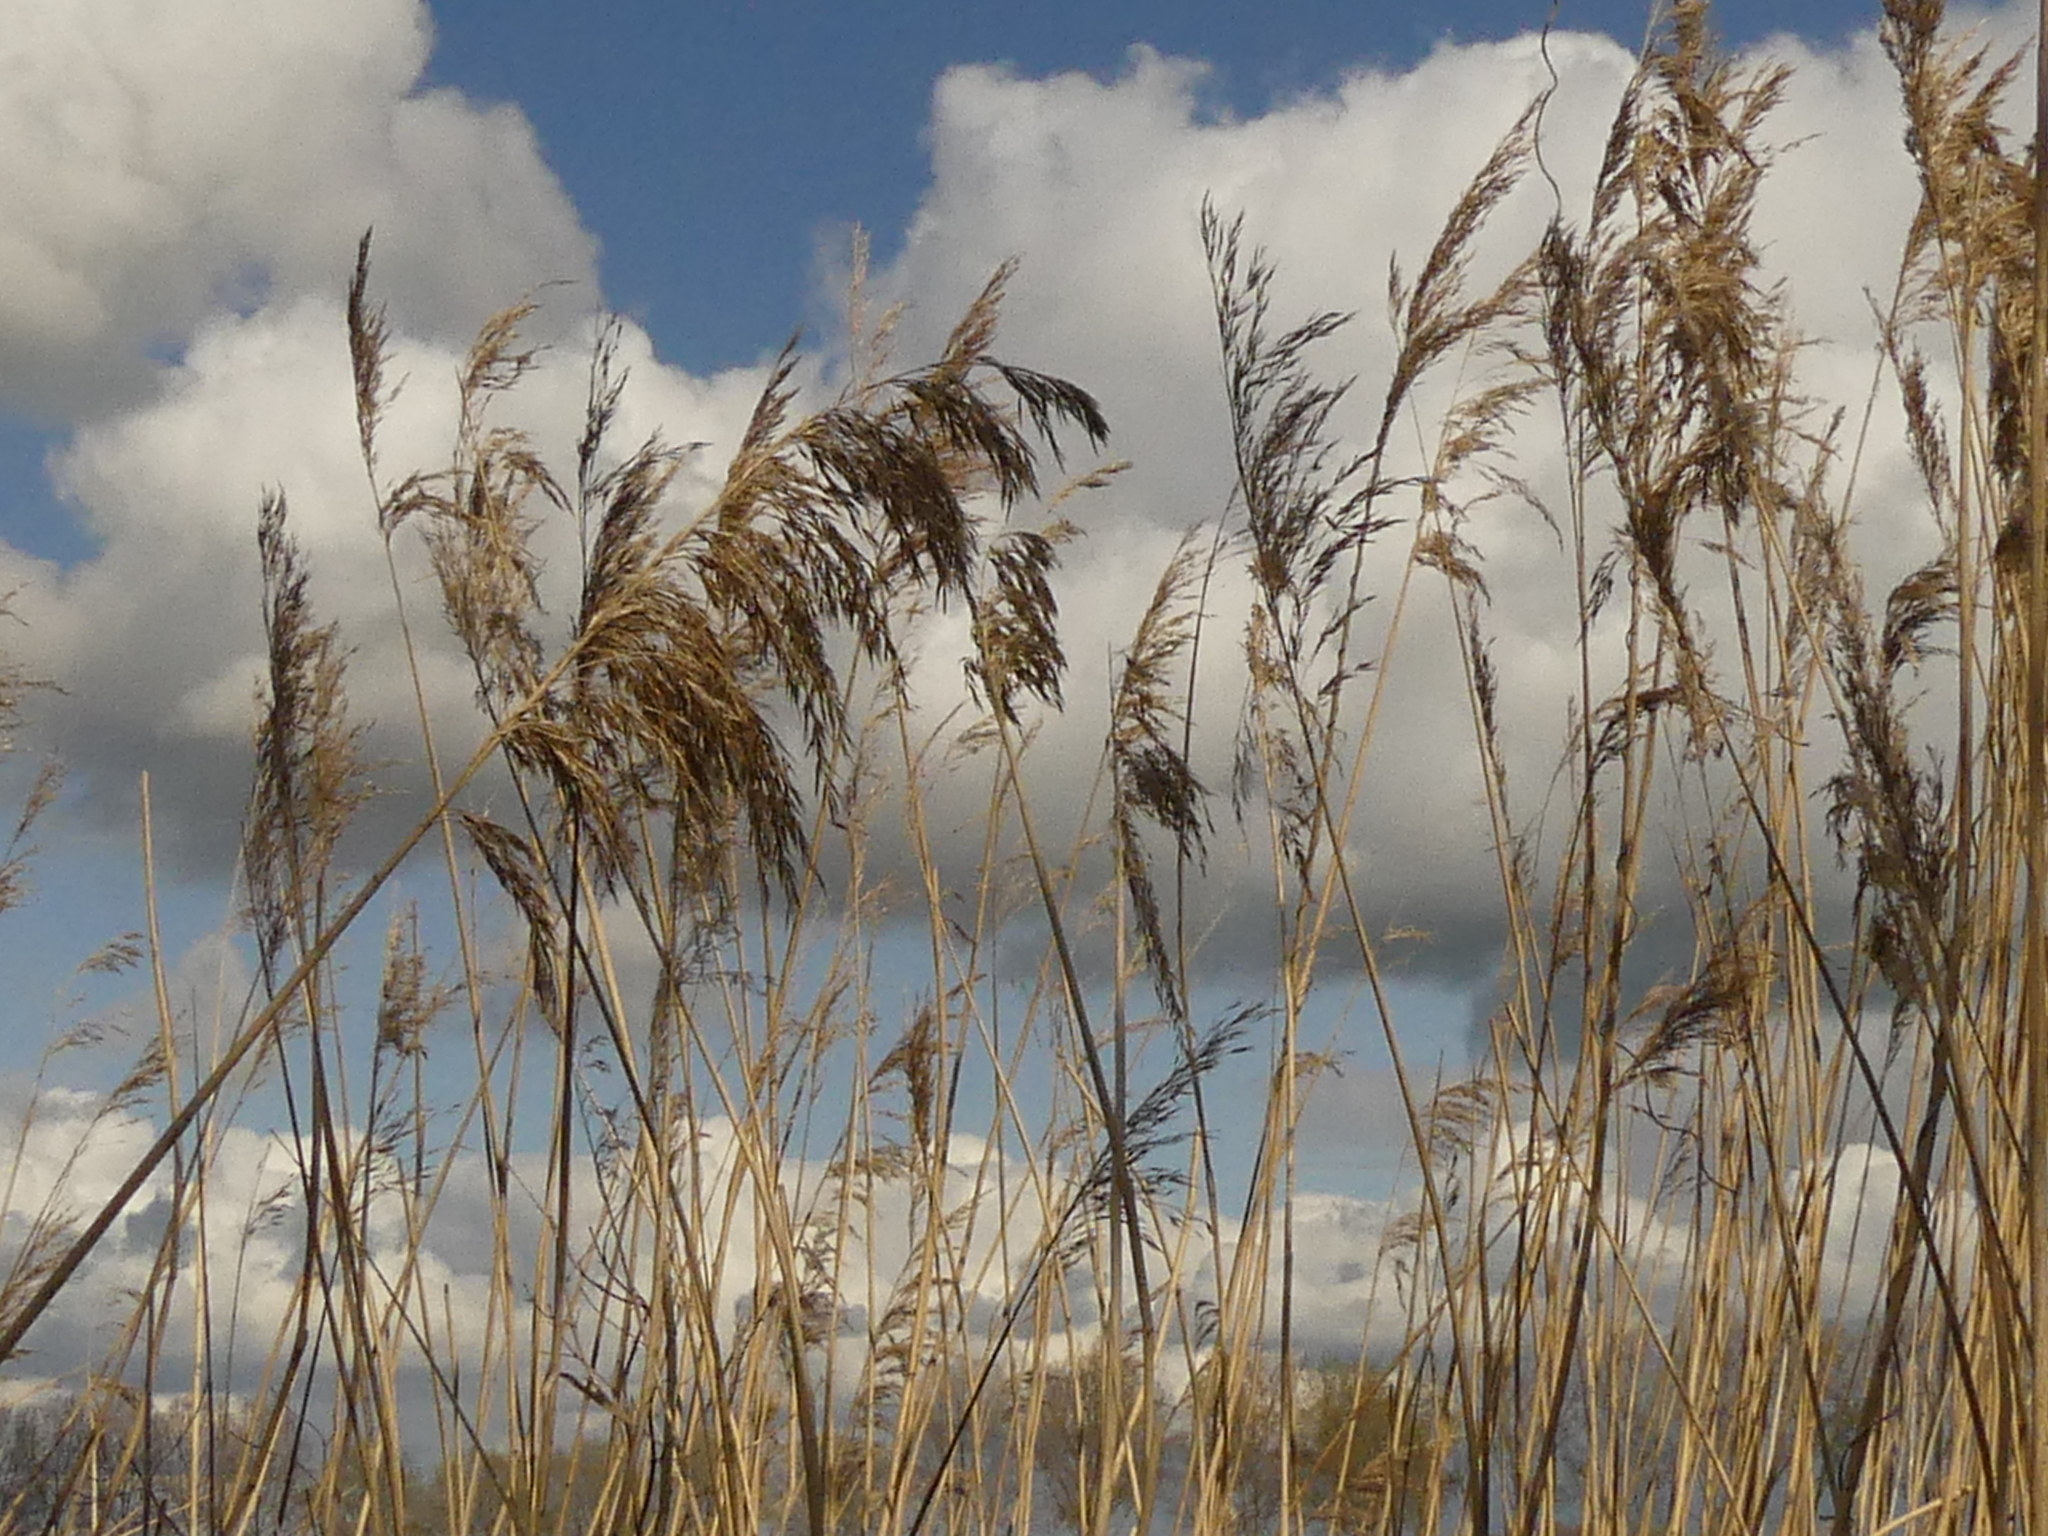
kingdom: Plantae
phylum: Tracheophyta
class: Liliopsida
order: Poales
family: Poaceae
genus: Phragmites
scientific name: Phragmites australis
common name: Common reed
